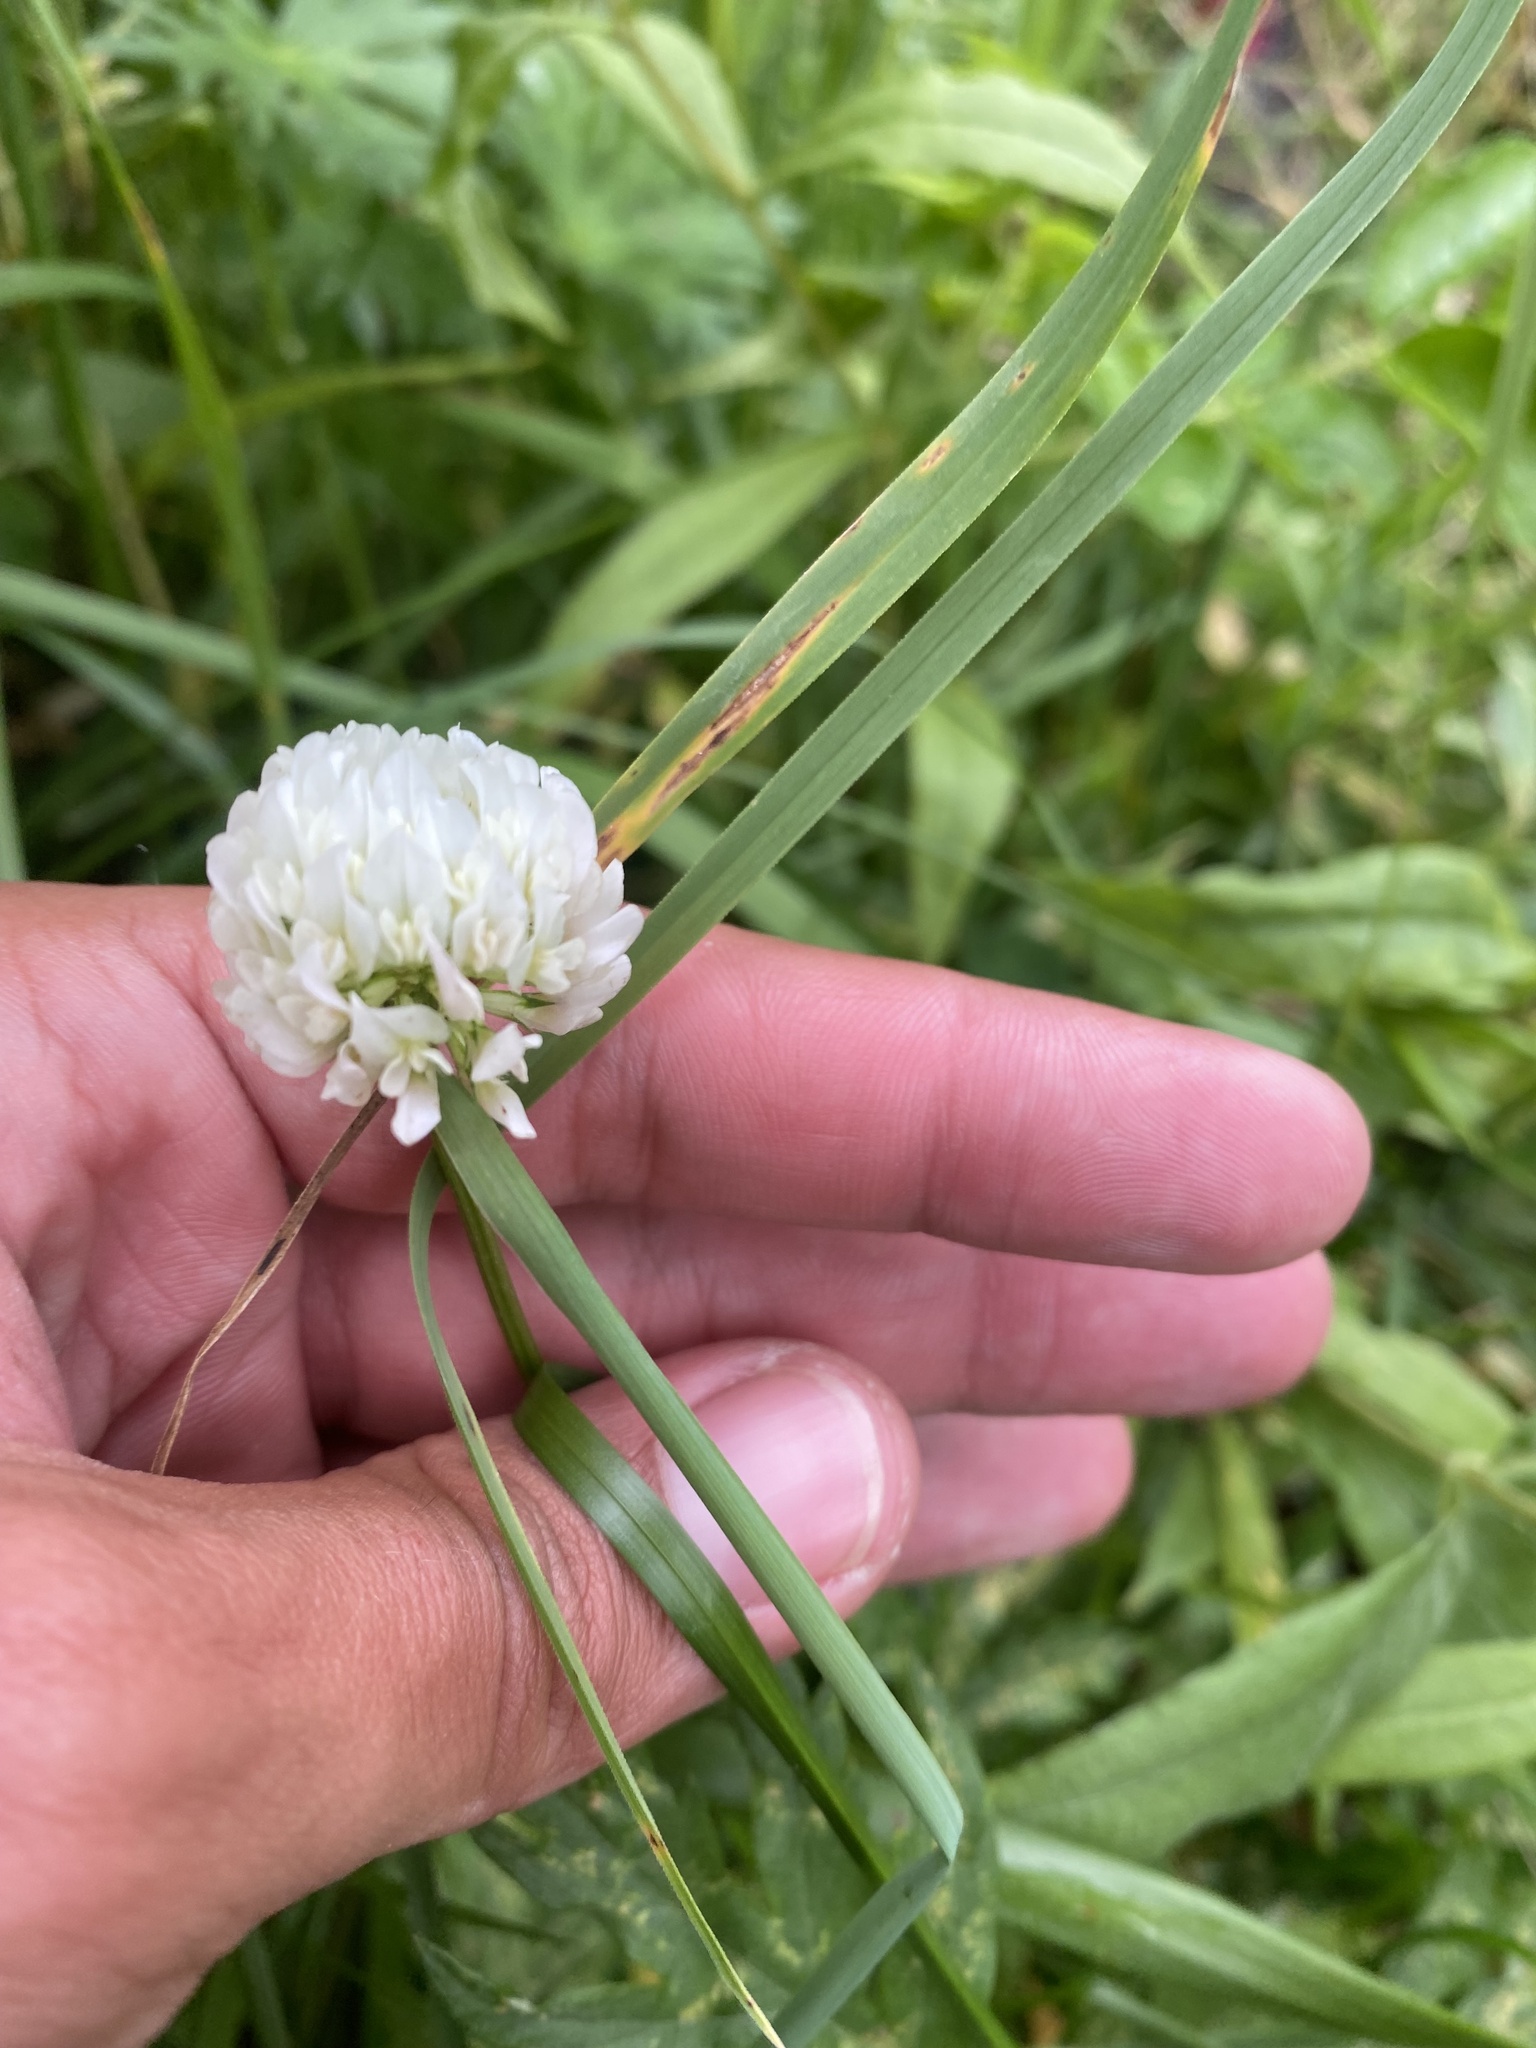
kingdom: Plantae
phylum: Tracheophyta
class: Magnoliopsida
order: Fabales
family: Fabaceae
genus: Trifolium
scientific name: Trifolium repens
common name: White clover
